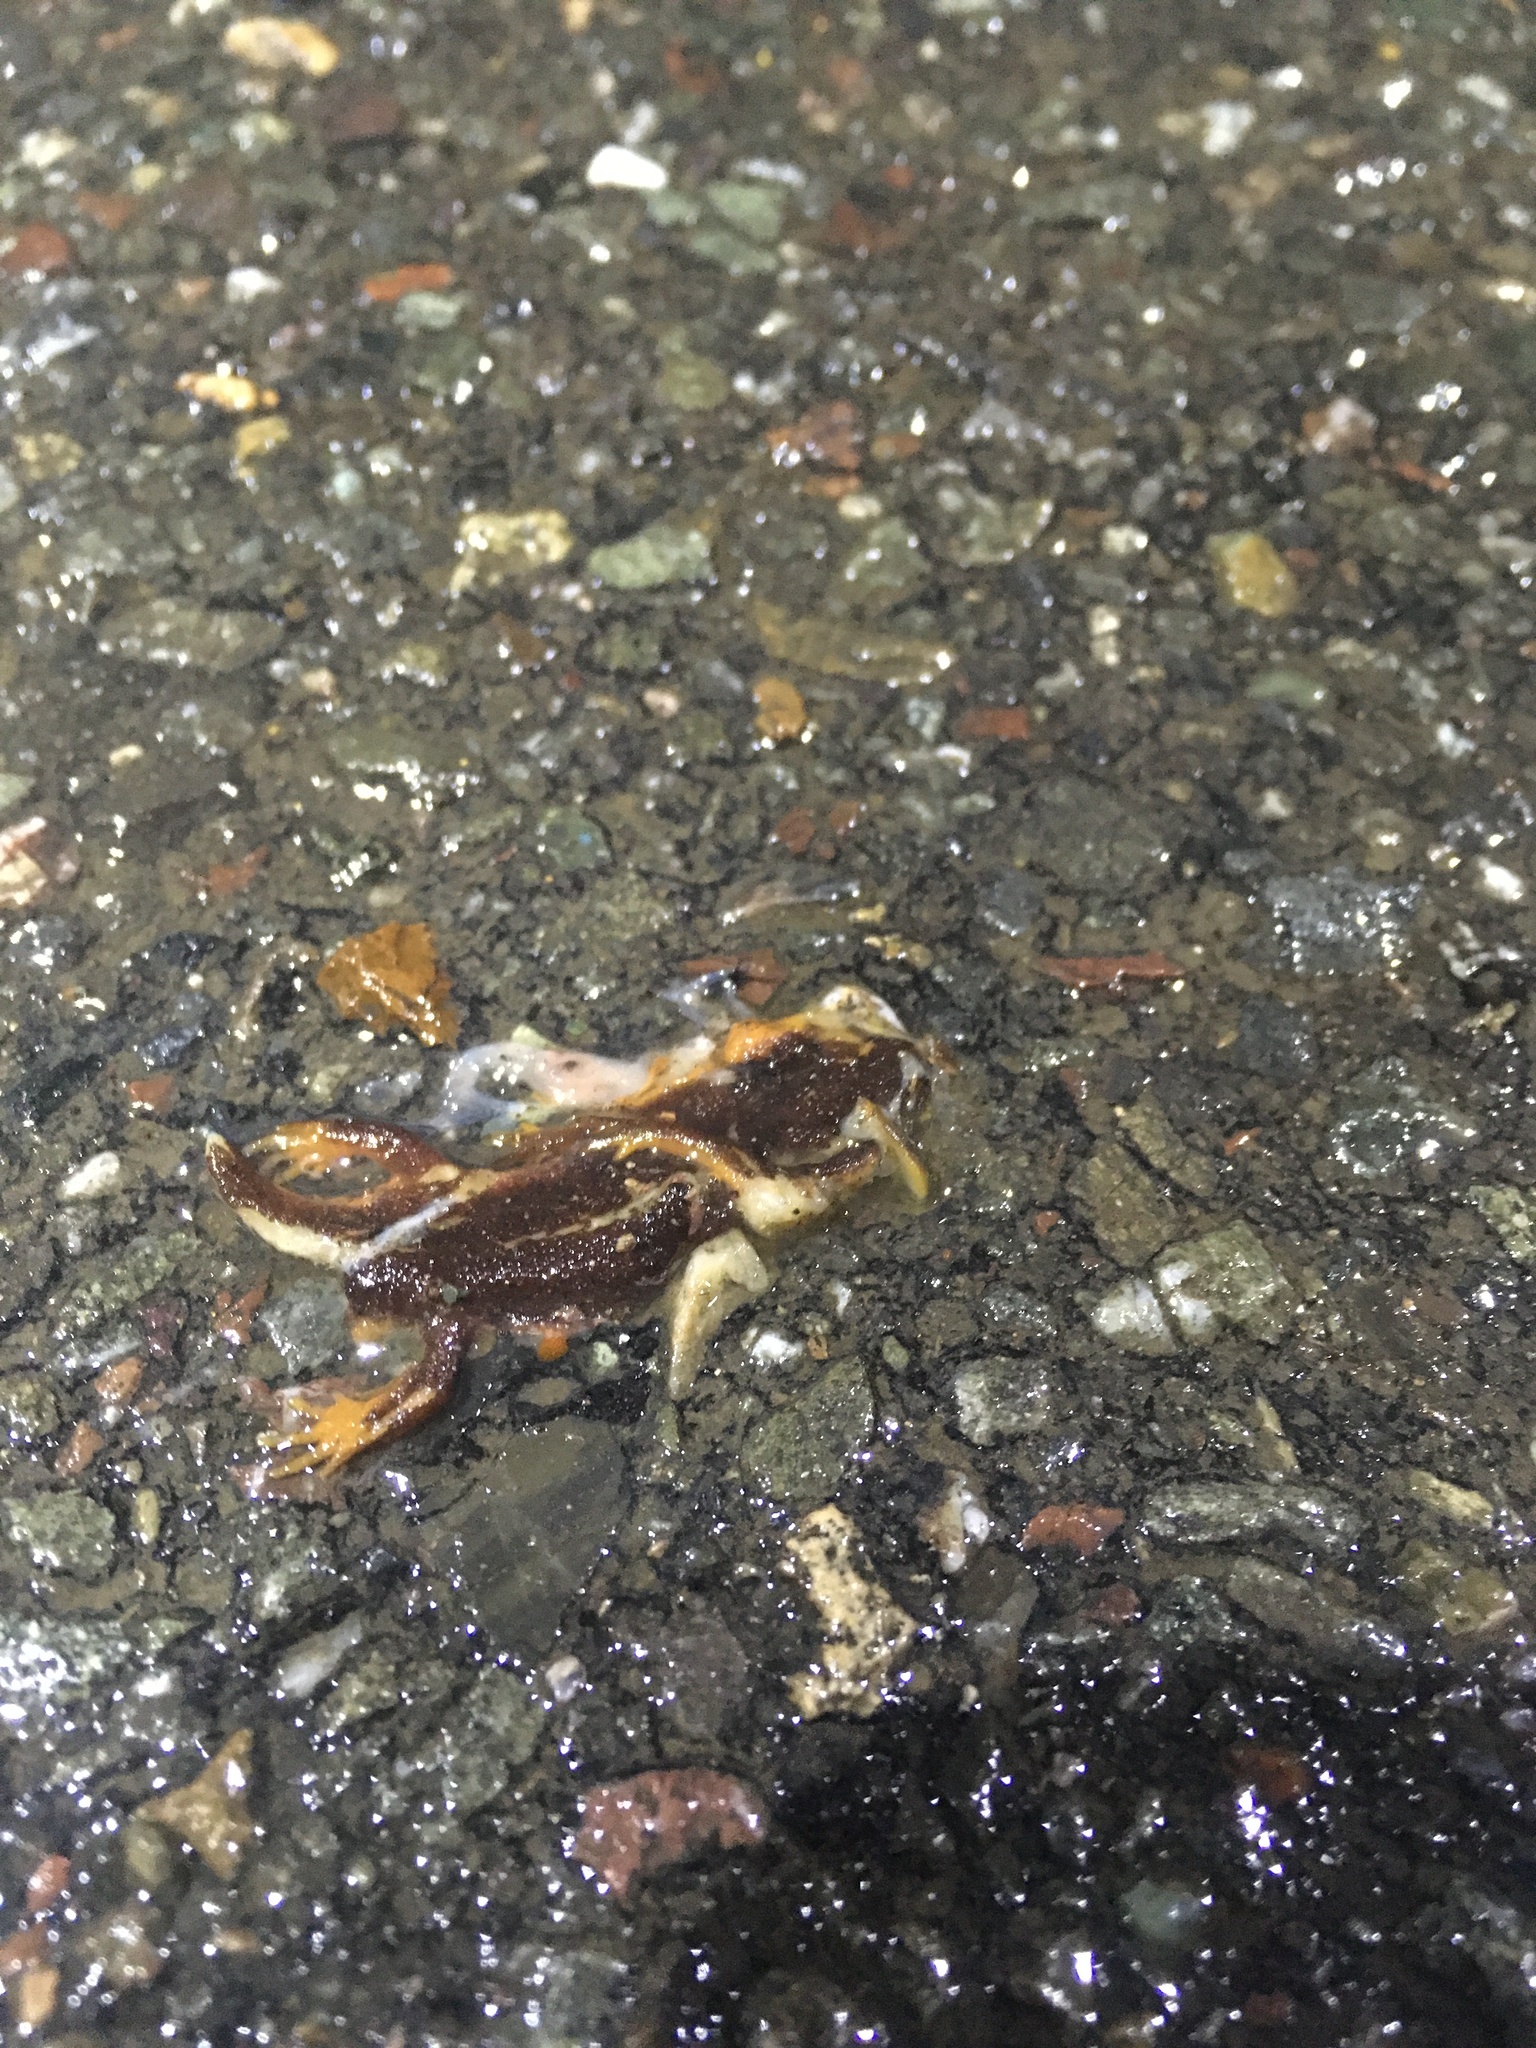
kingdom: Animalia
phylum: Chordata
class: Amphibia
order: Caudata
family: Salamandridae
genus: Taricha
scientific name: Taricha
